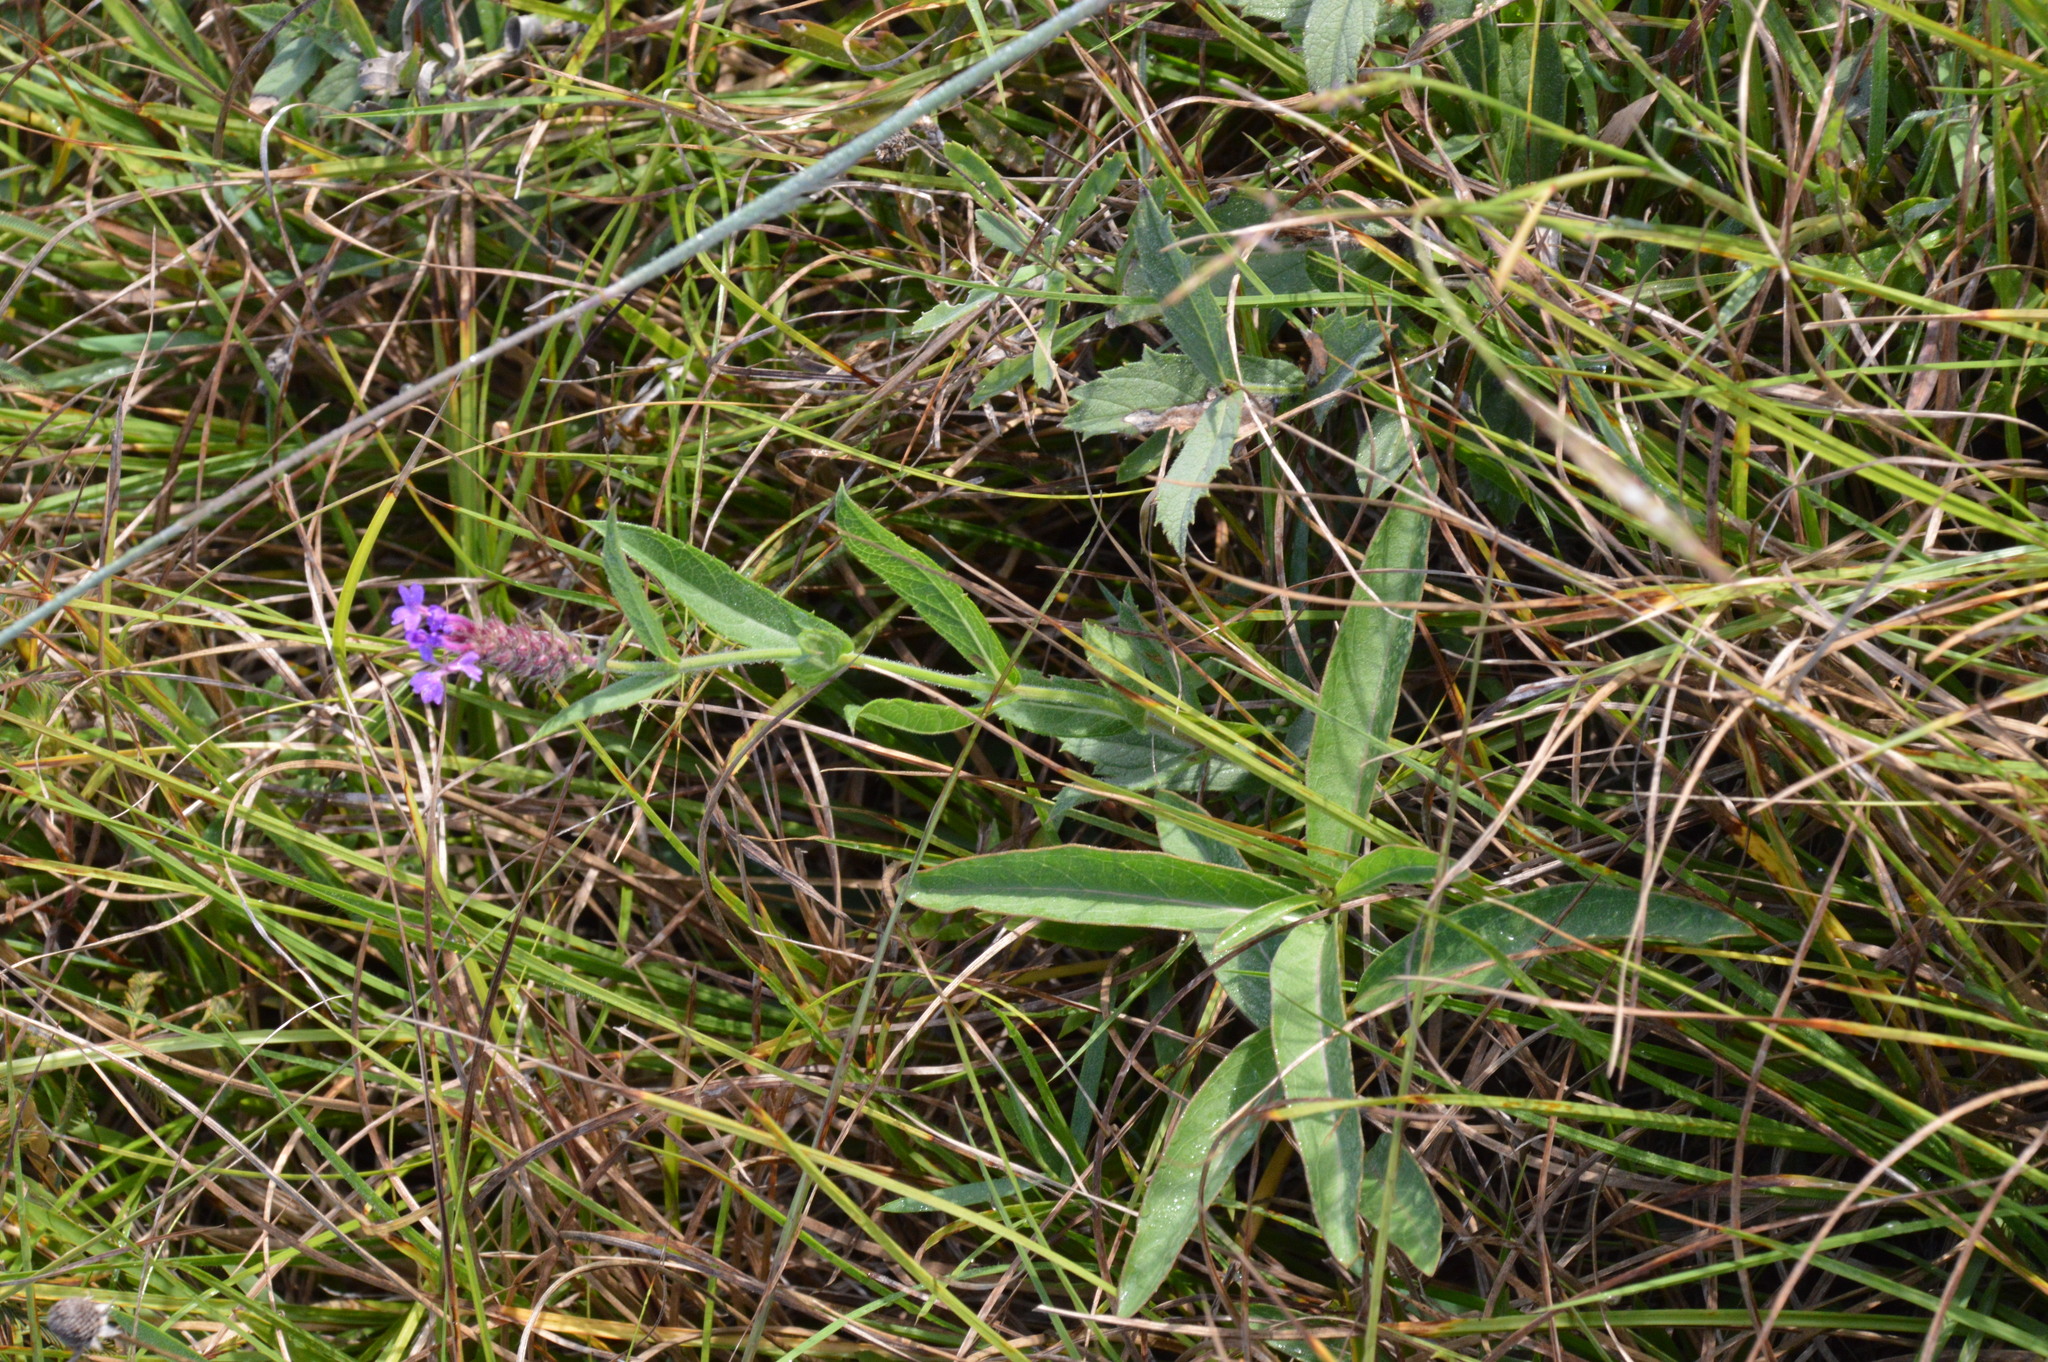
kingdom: Plantae
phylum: Tracheophyta
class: Magnoliopsida
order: Lamiales
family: Verbenaceae
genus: Verbena
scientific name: Verbena rigida
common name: Slender vervain
